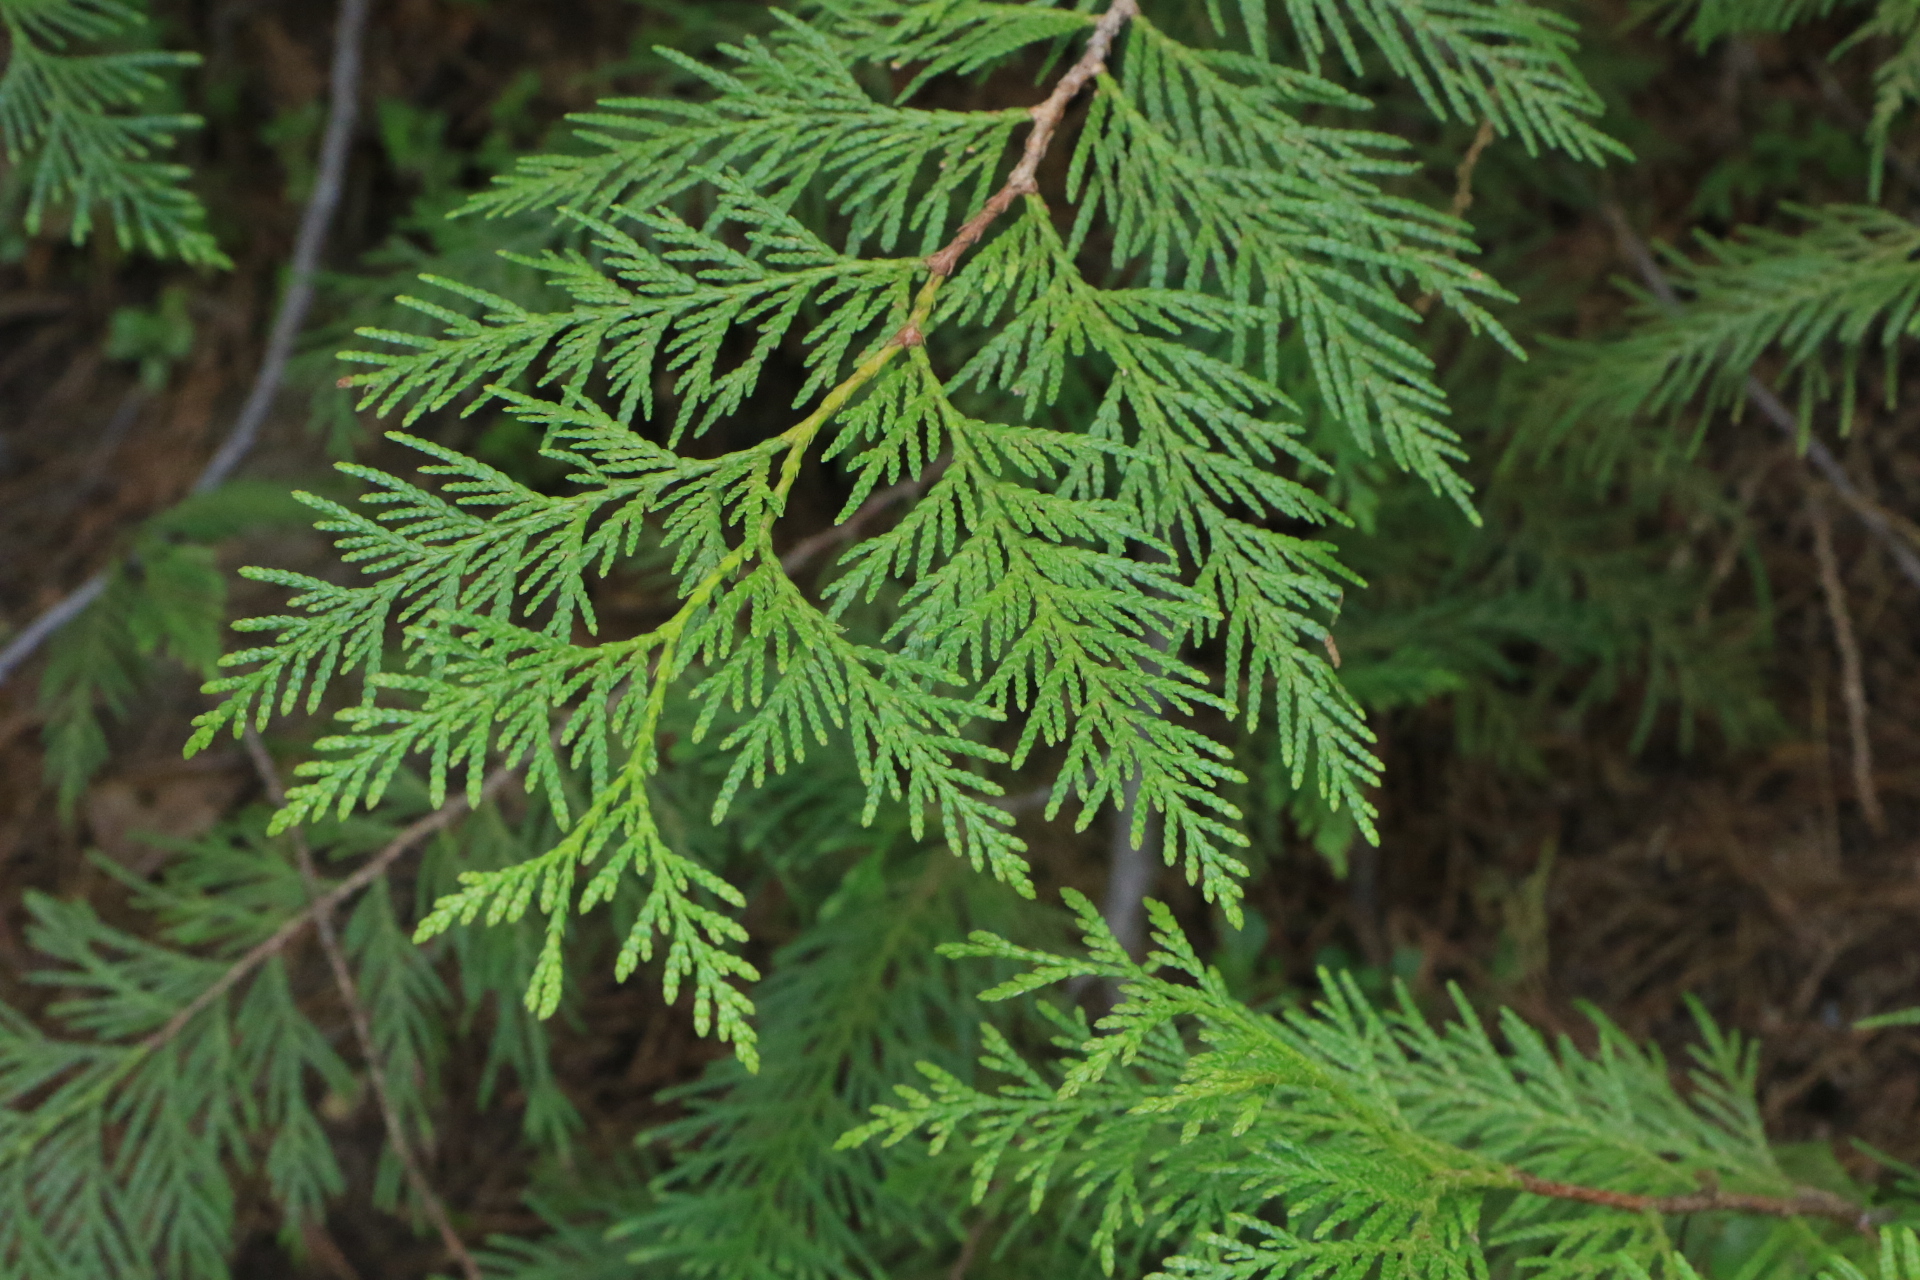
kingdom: Plantae
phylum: Tracheophyta
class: Pinopsida
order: Pinales
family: Cupressaceae
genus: Thuja
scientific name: Thuja plicata
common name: Western red-cedar
